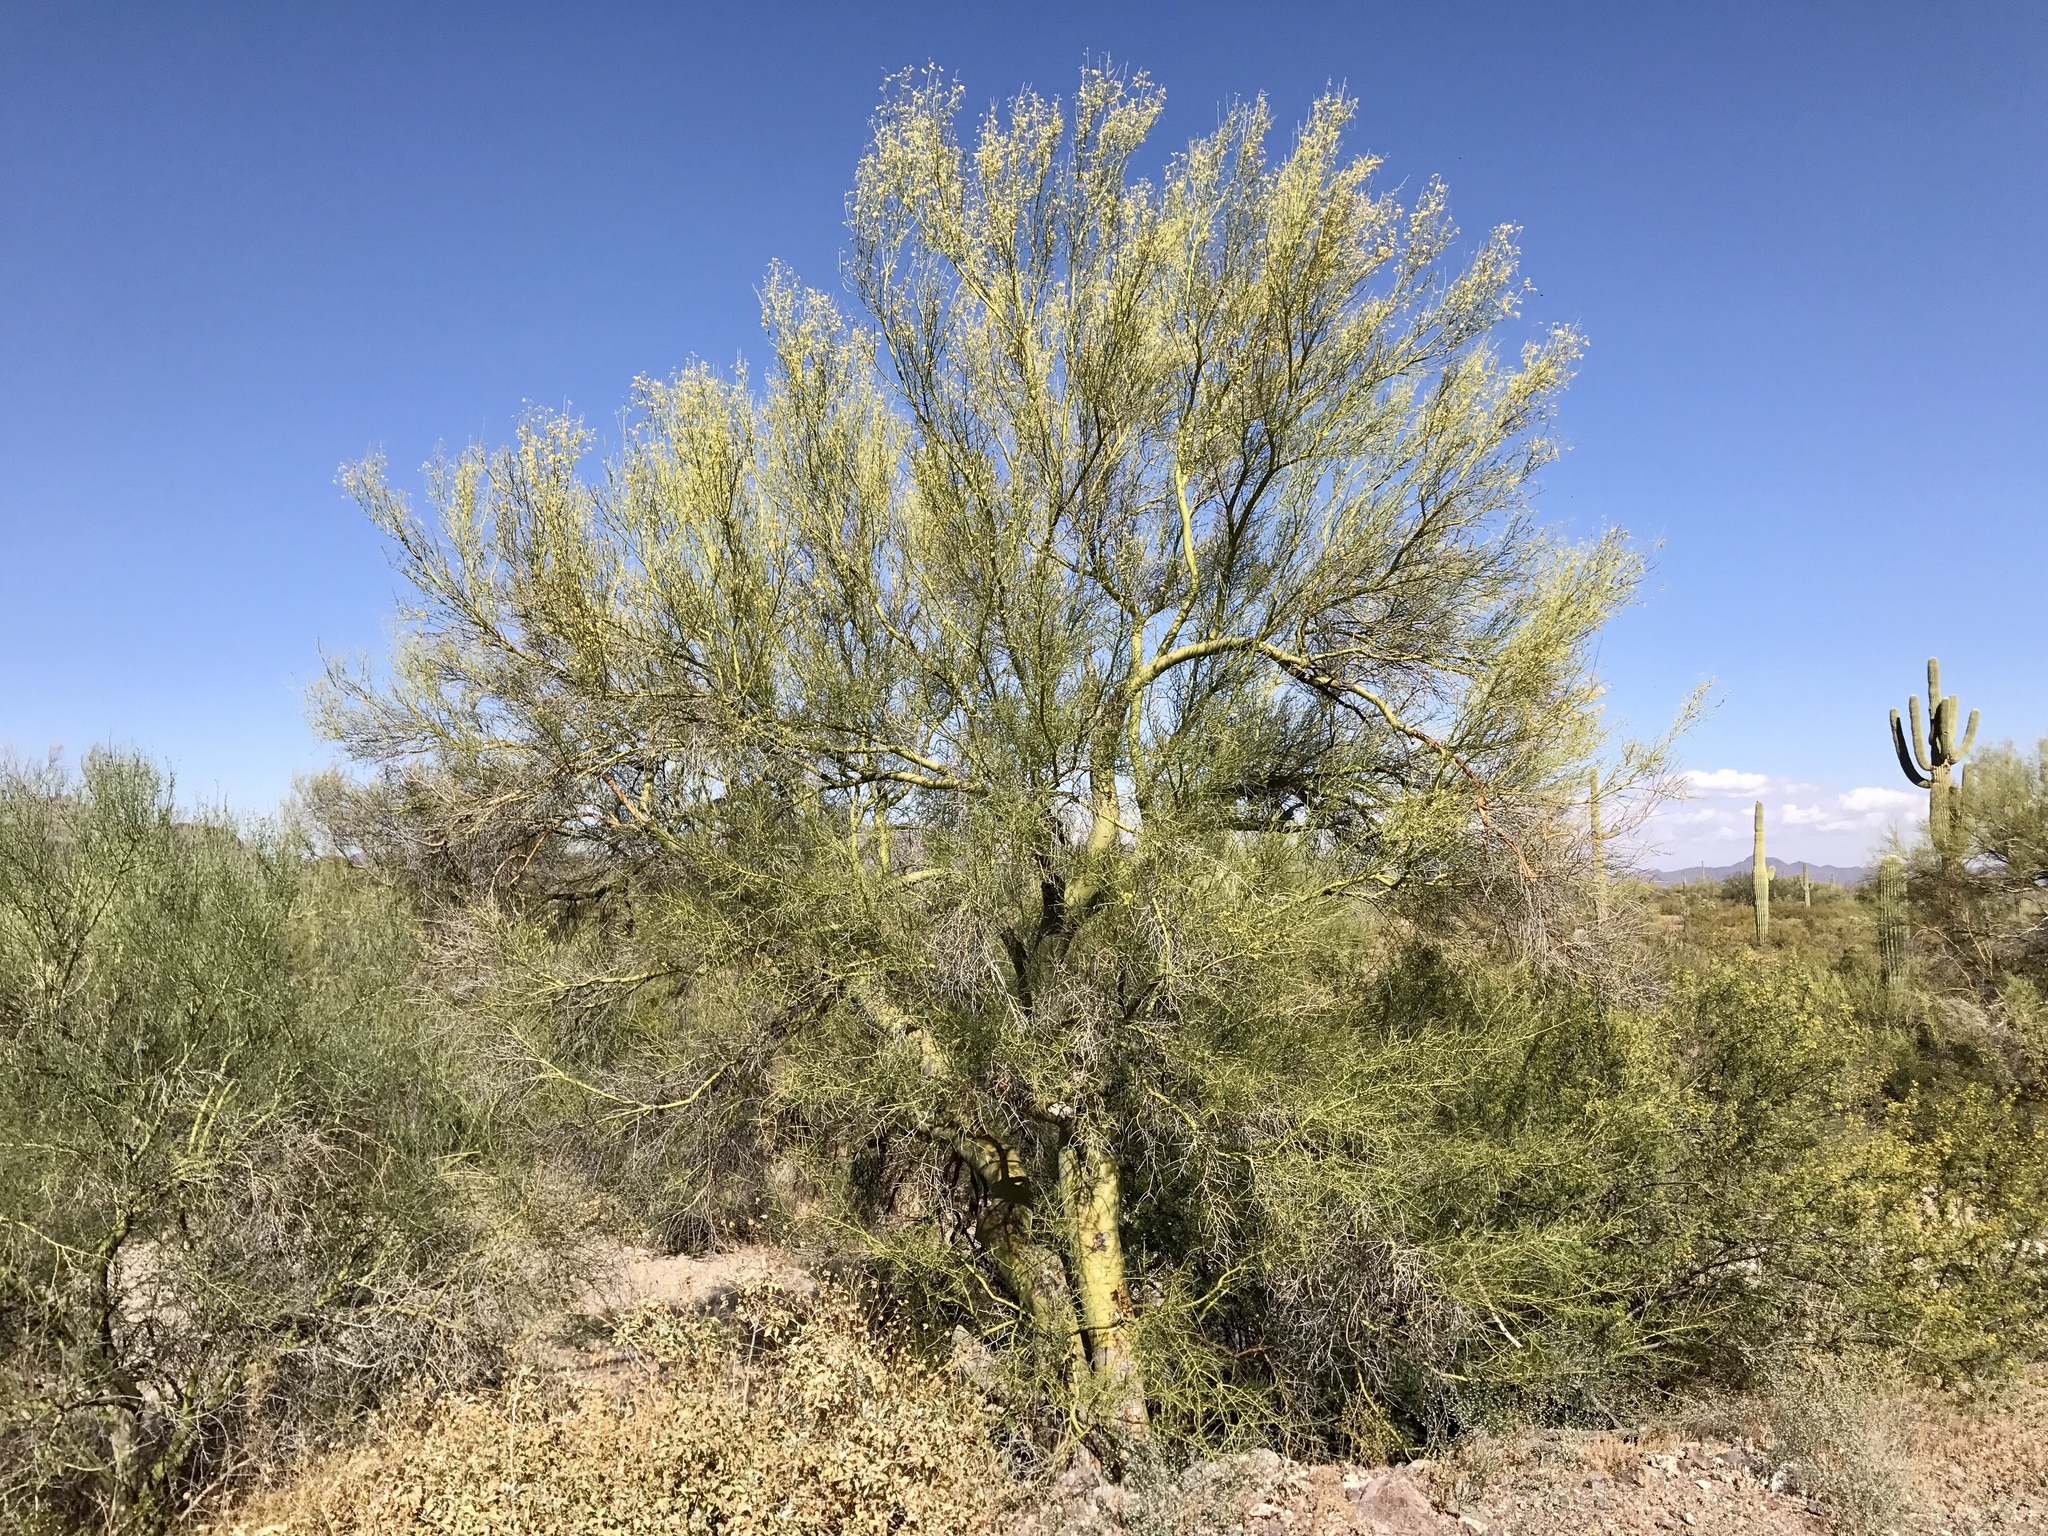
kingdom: Plantae
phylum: Tracheophyta
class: Magnoliopsida
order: Fabales
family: Fabaceae
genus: Parkinsonia
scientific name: Parkinsonia florida
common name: Blue paloverde
